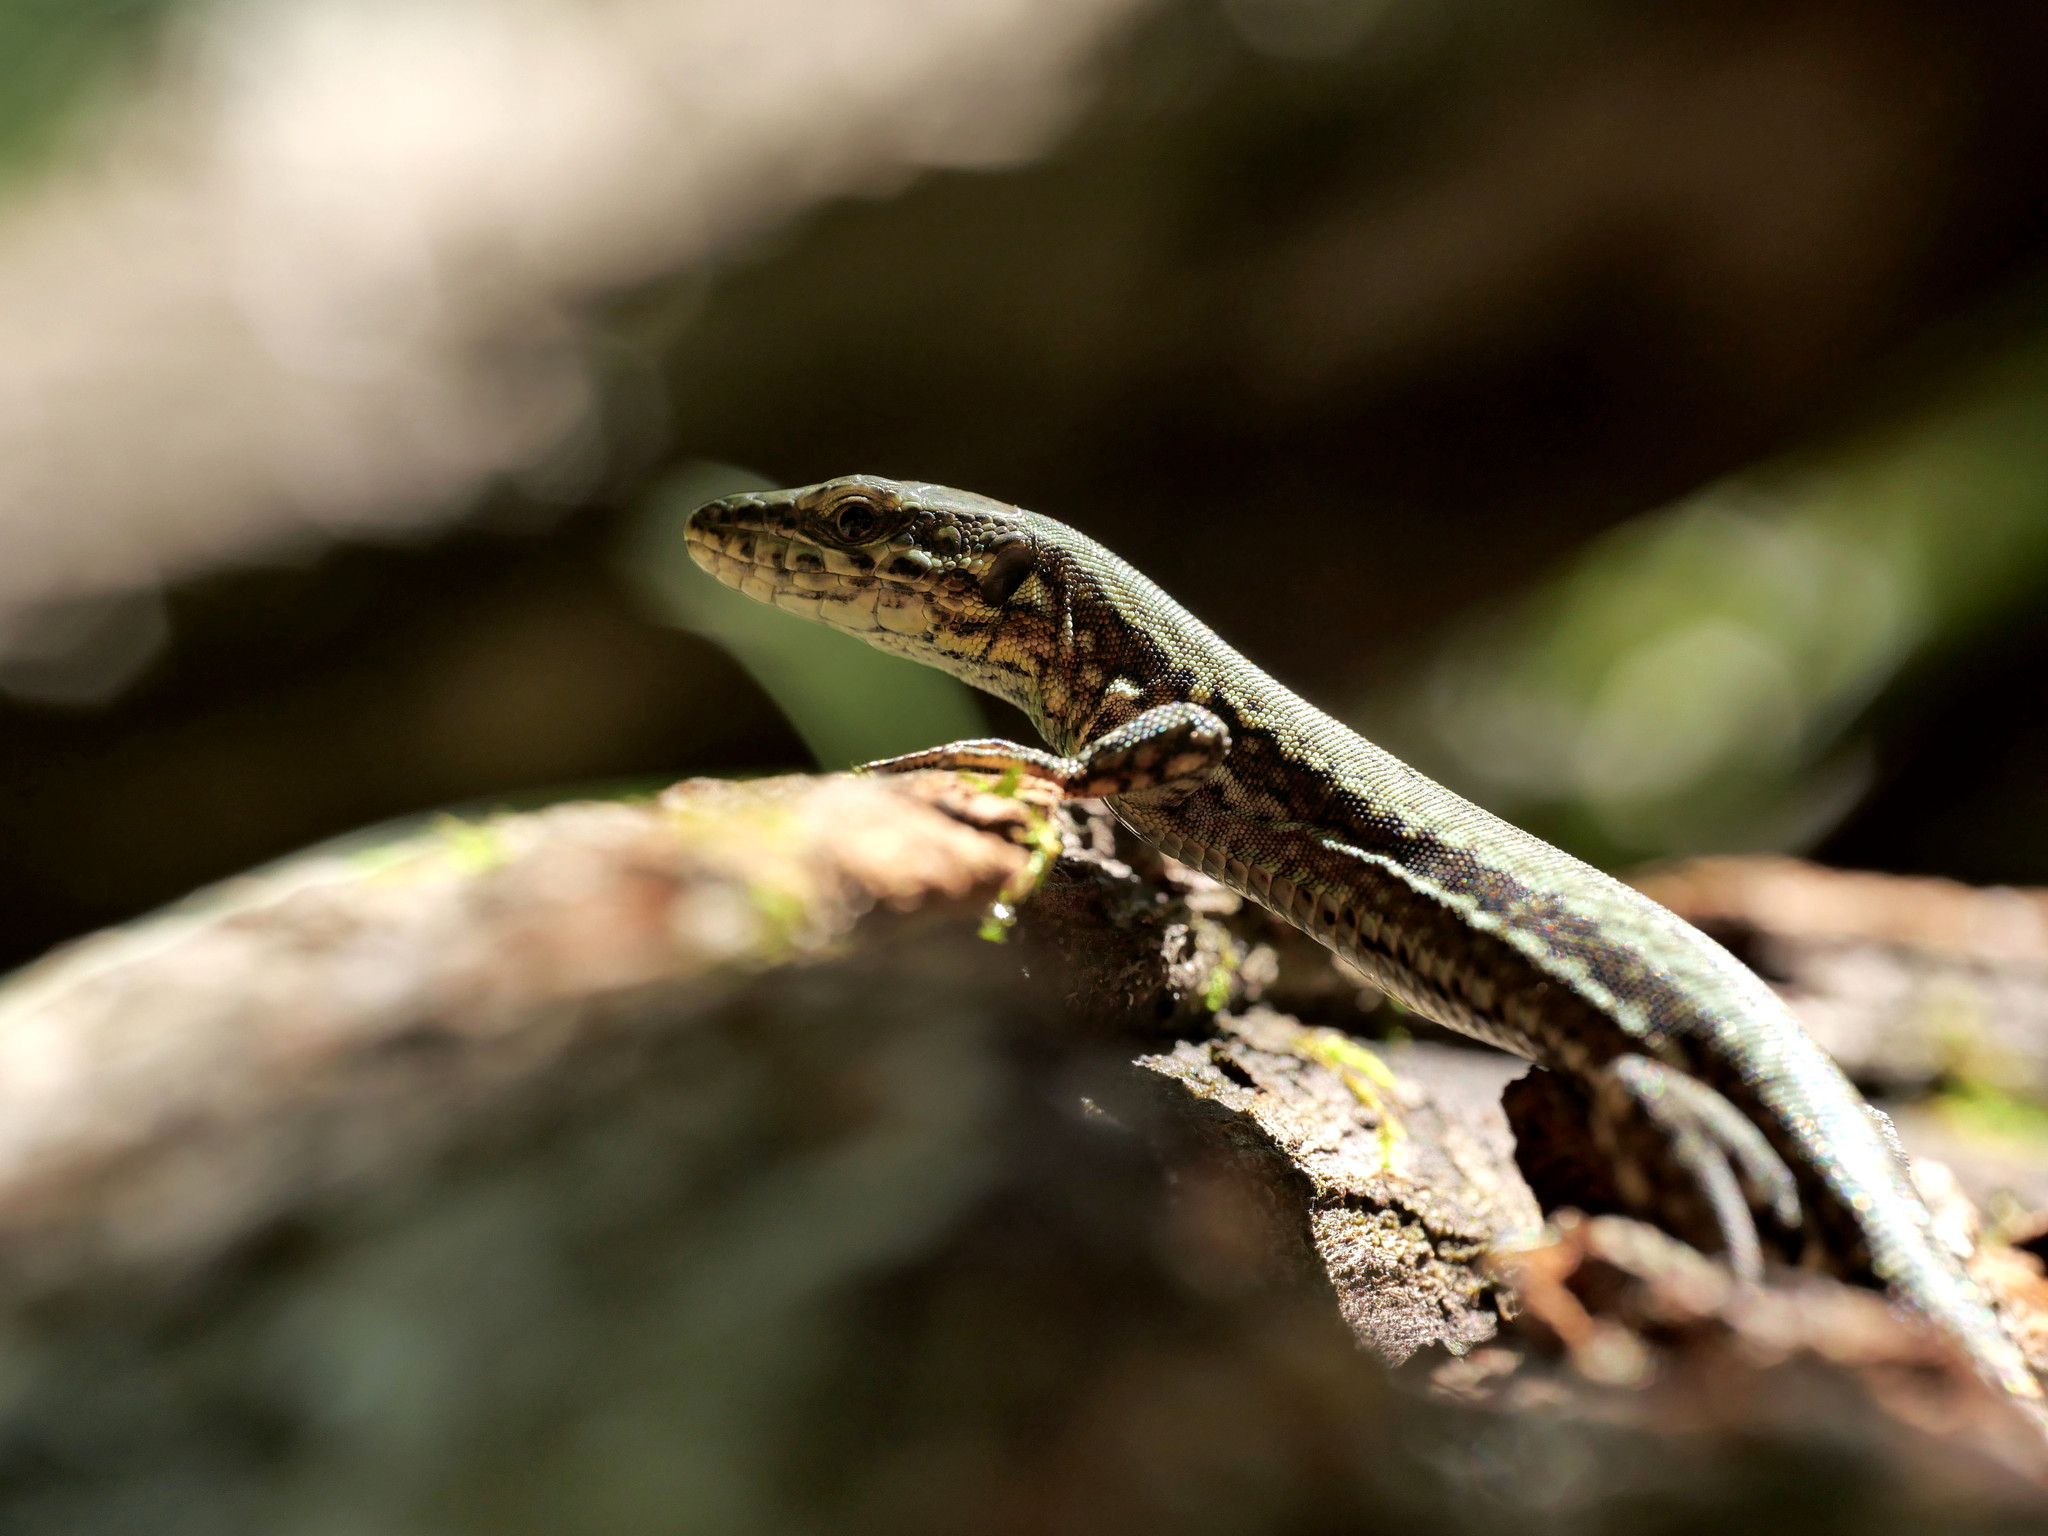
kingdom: Animalia
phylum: Chordata
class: Squamata
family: Lacertidae
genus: Podarcis
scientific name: Podarcis muralis
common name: Common wall lizard
